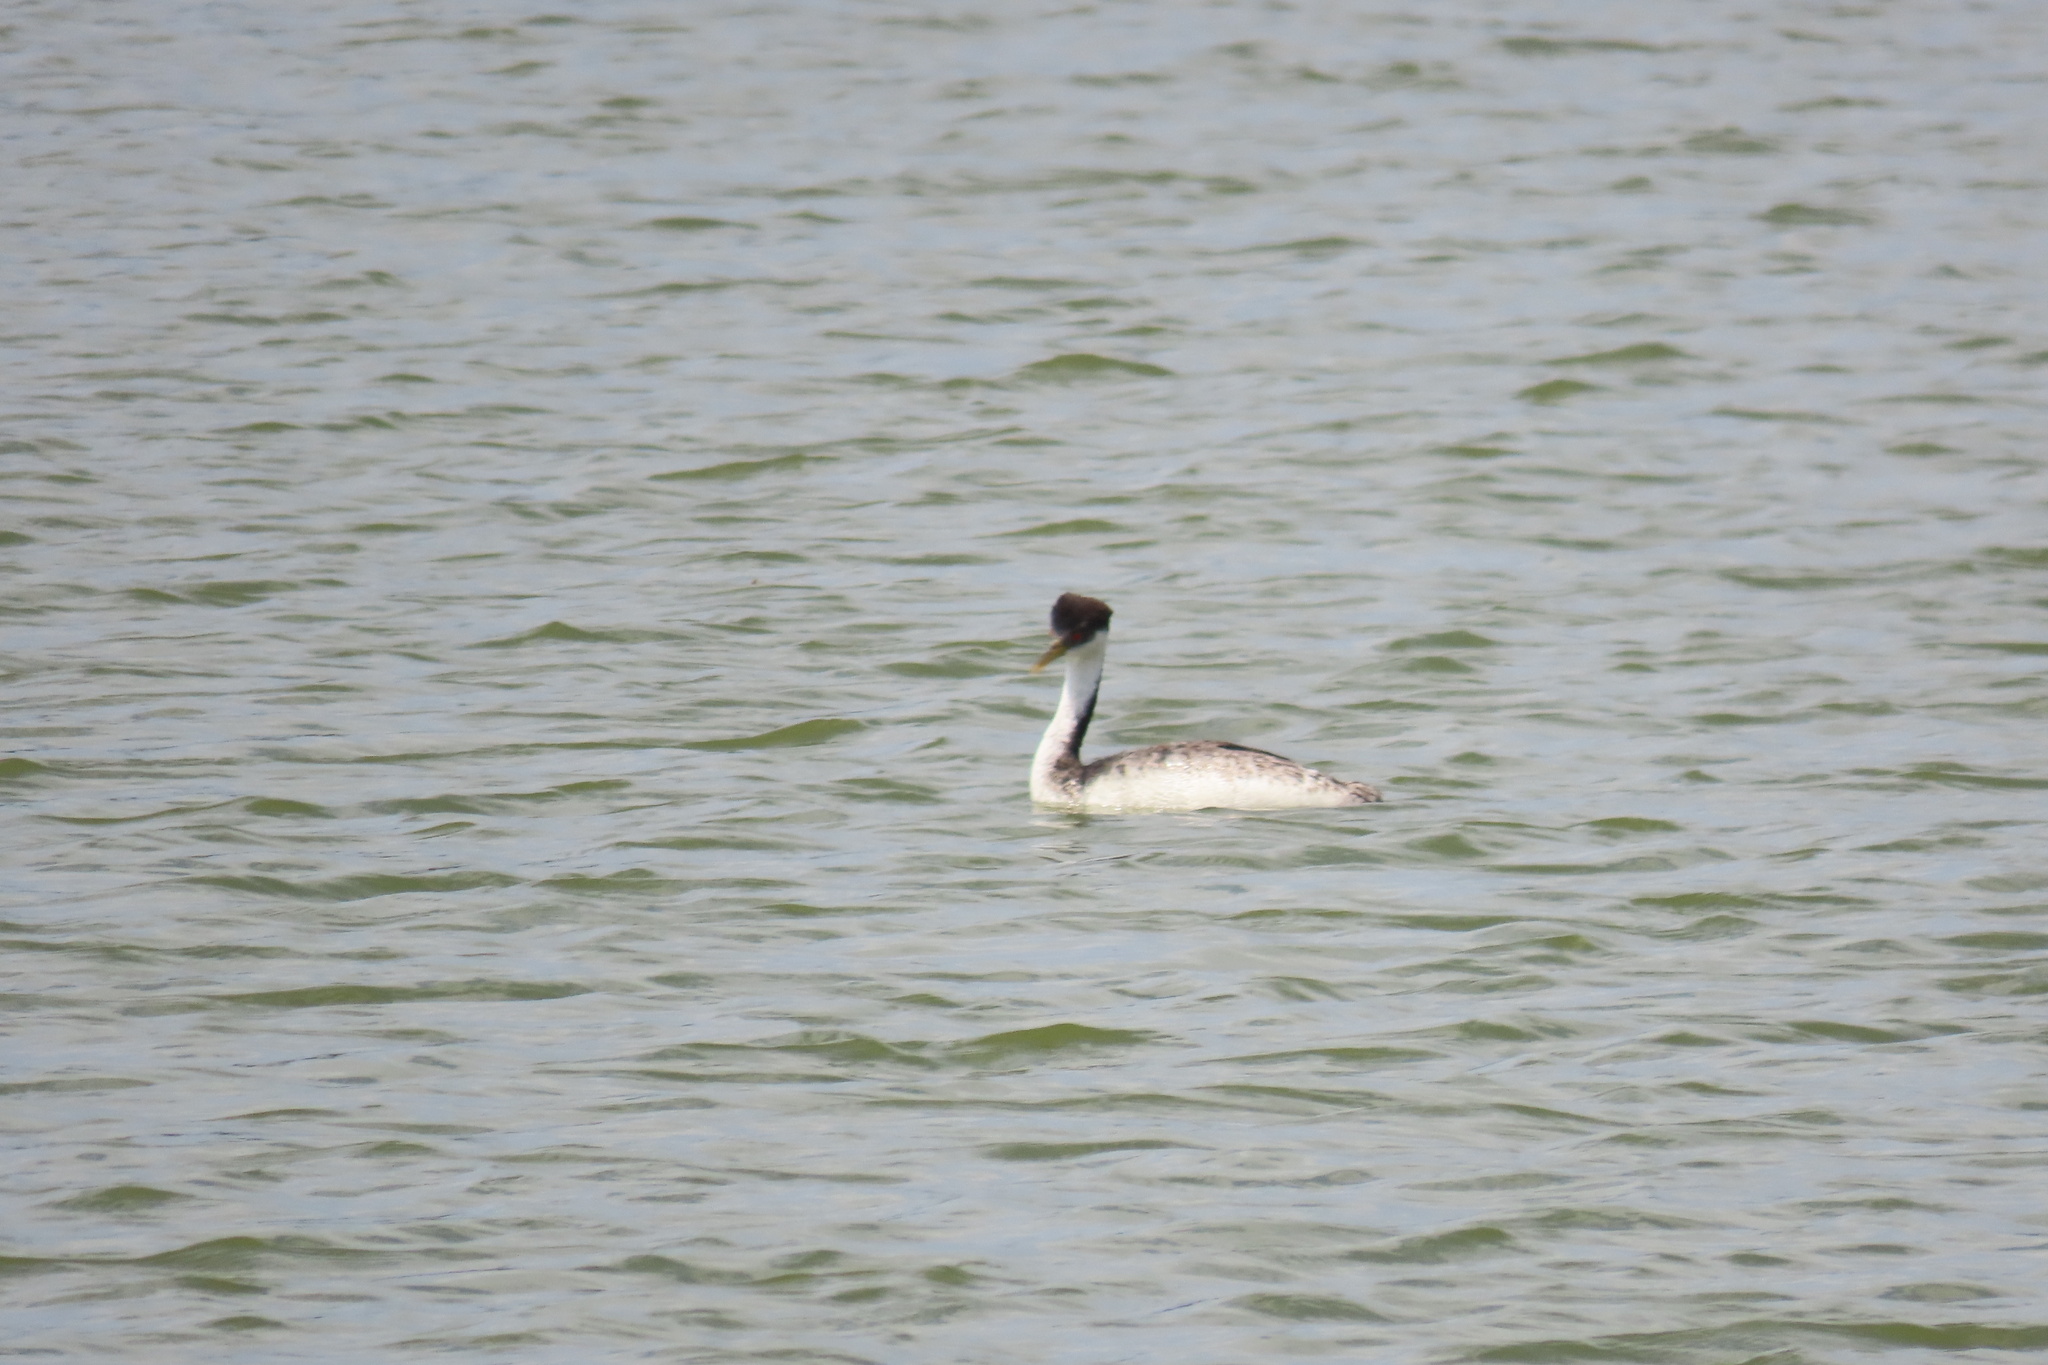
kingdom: Animalia
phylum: Chordata
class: Aves
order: Podicipediformes
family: Podicipedidae
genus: Aechmophorus
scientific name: Aechmophorus occidentalis
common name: Western grebe
